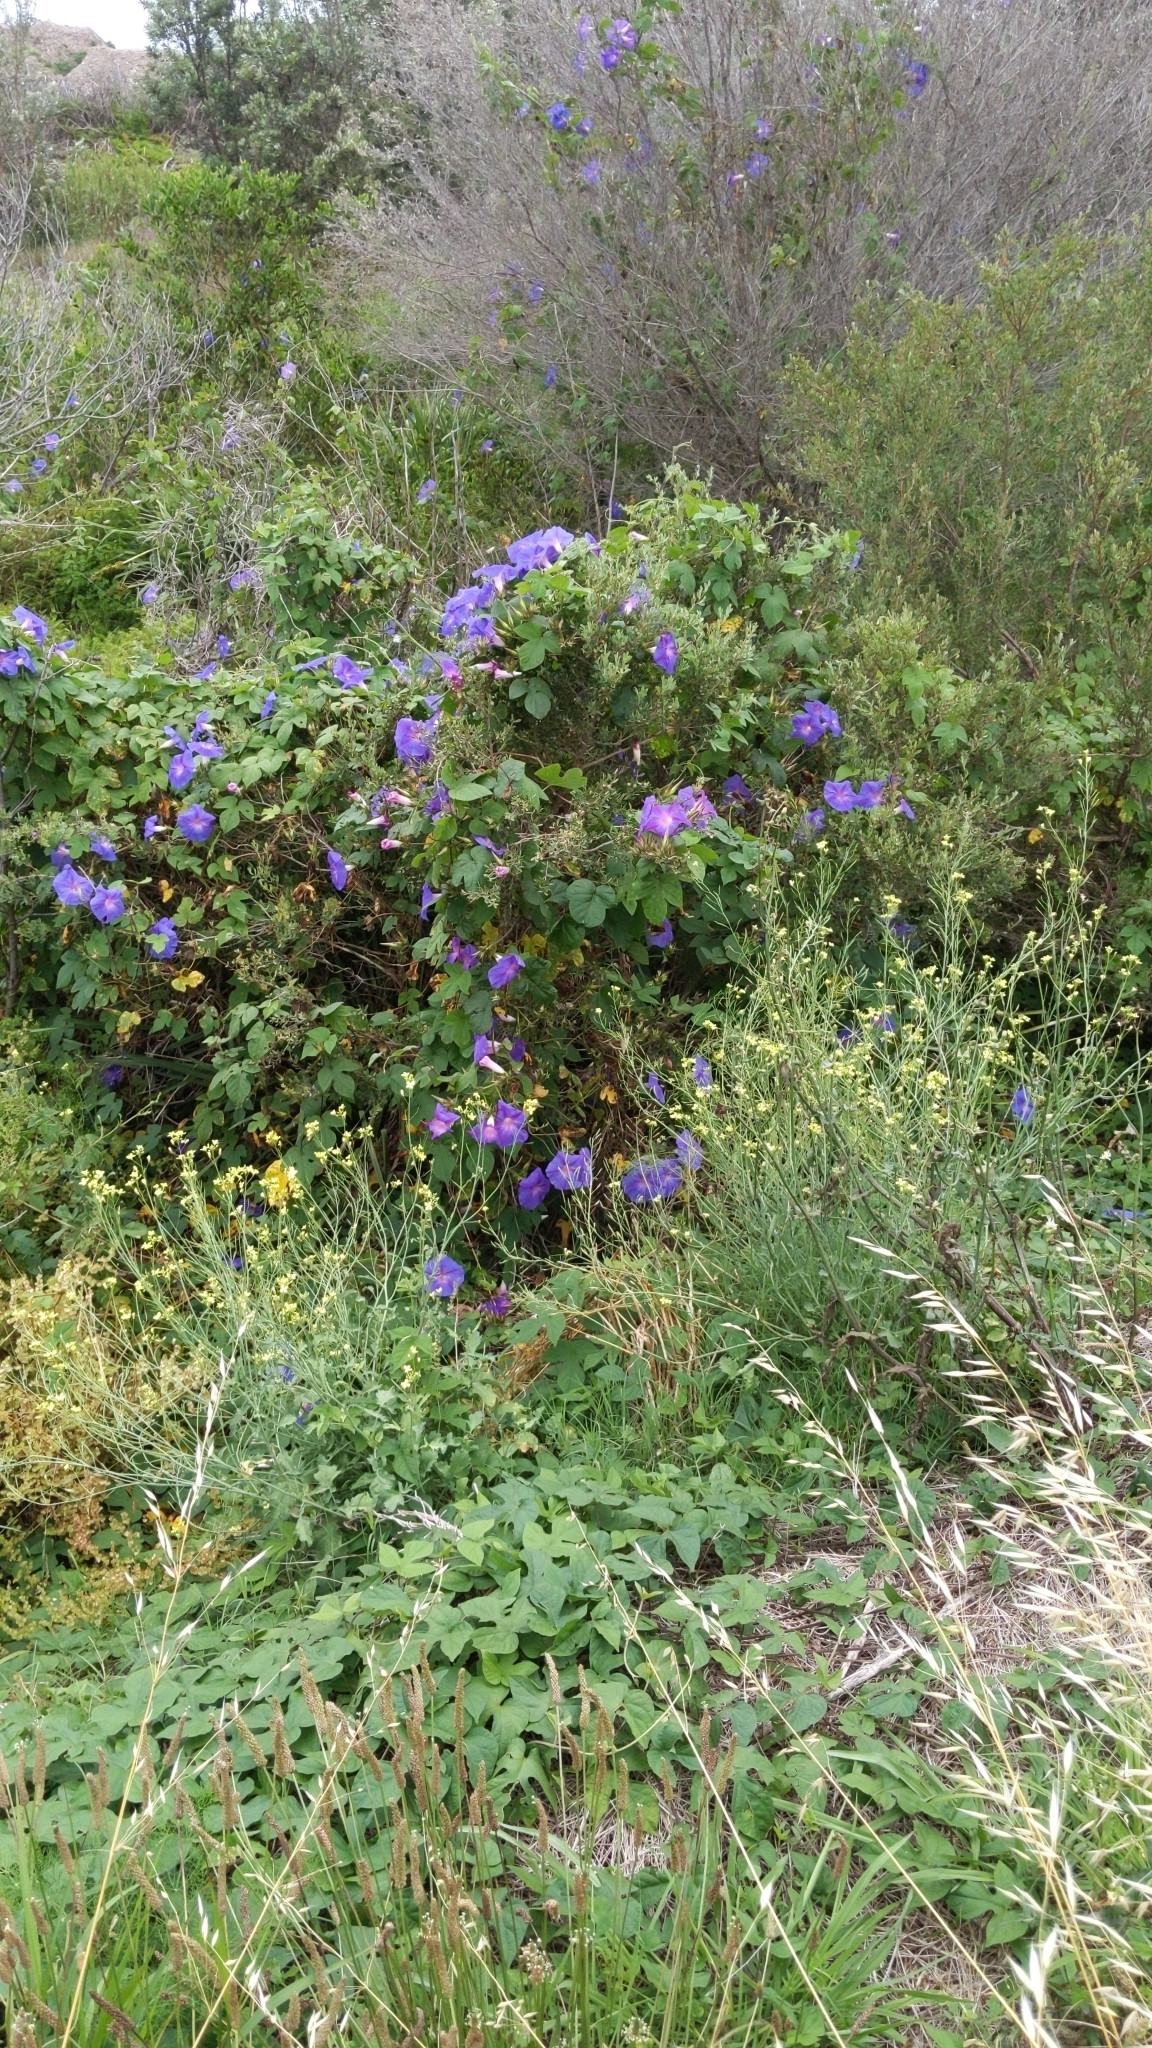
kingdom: Plantae
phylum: Tracheophyta
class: Magnoliopsida
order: Solanales
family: Convolvulaceae
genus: Ipomoea
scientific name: Ipomoea indica
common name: Blue dawnflower
